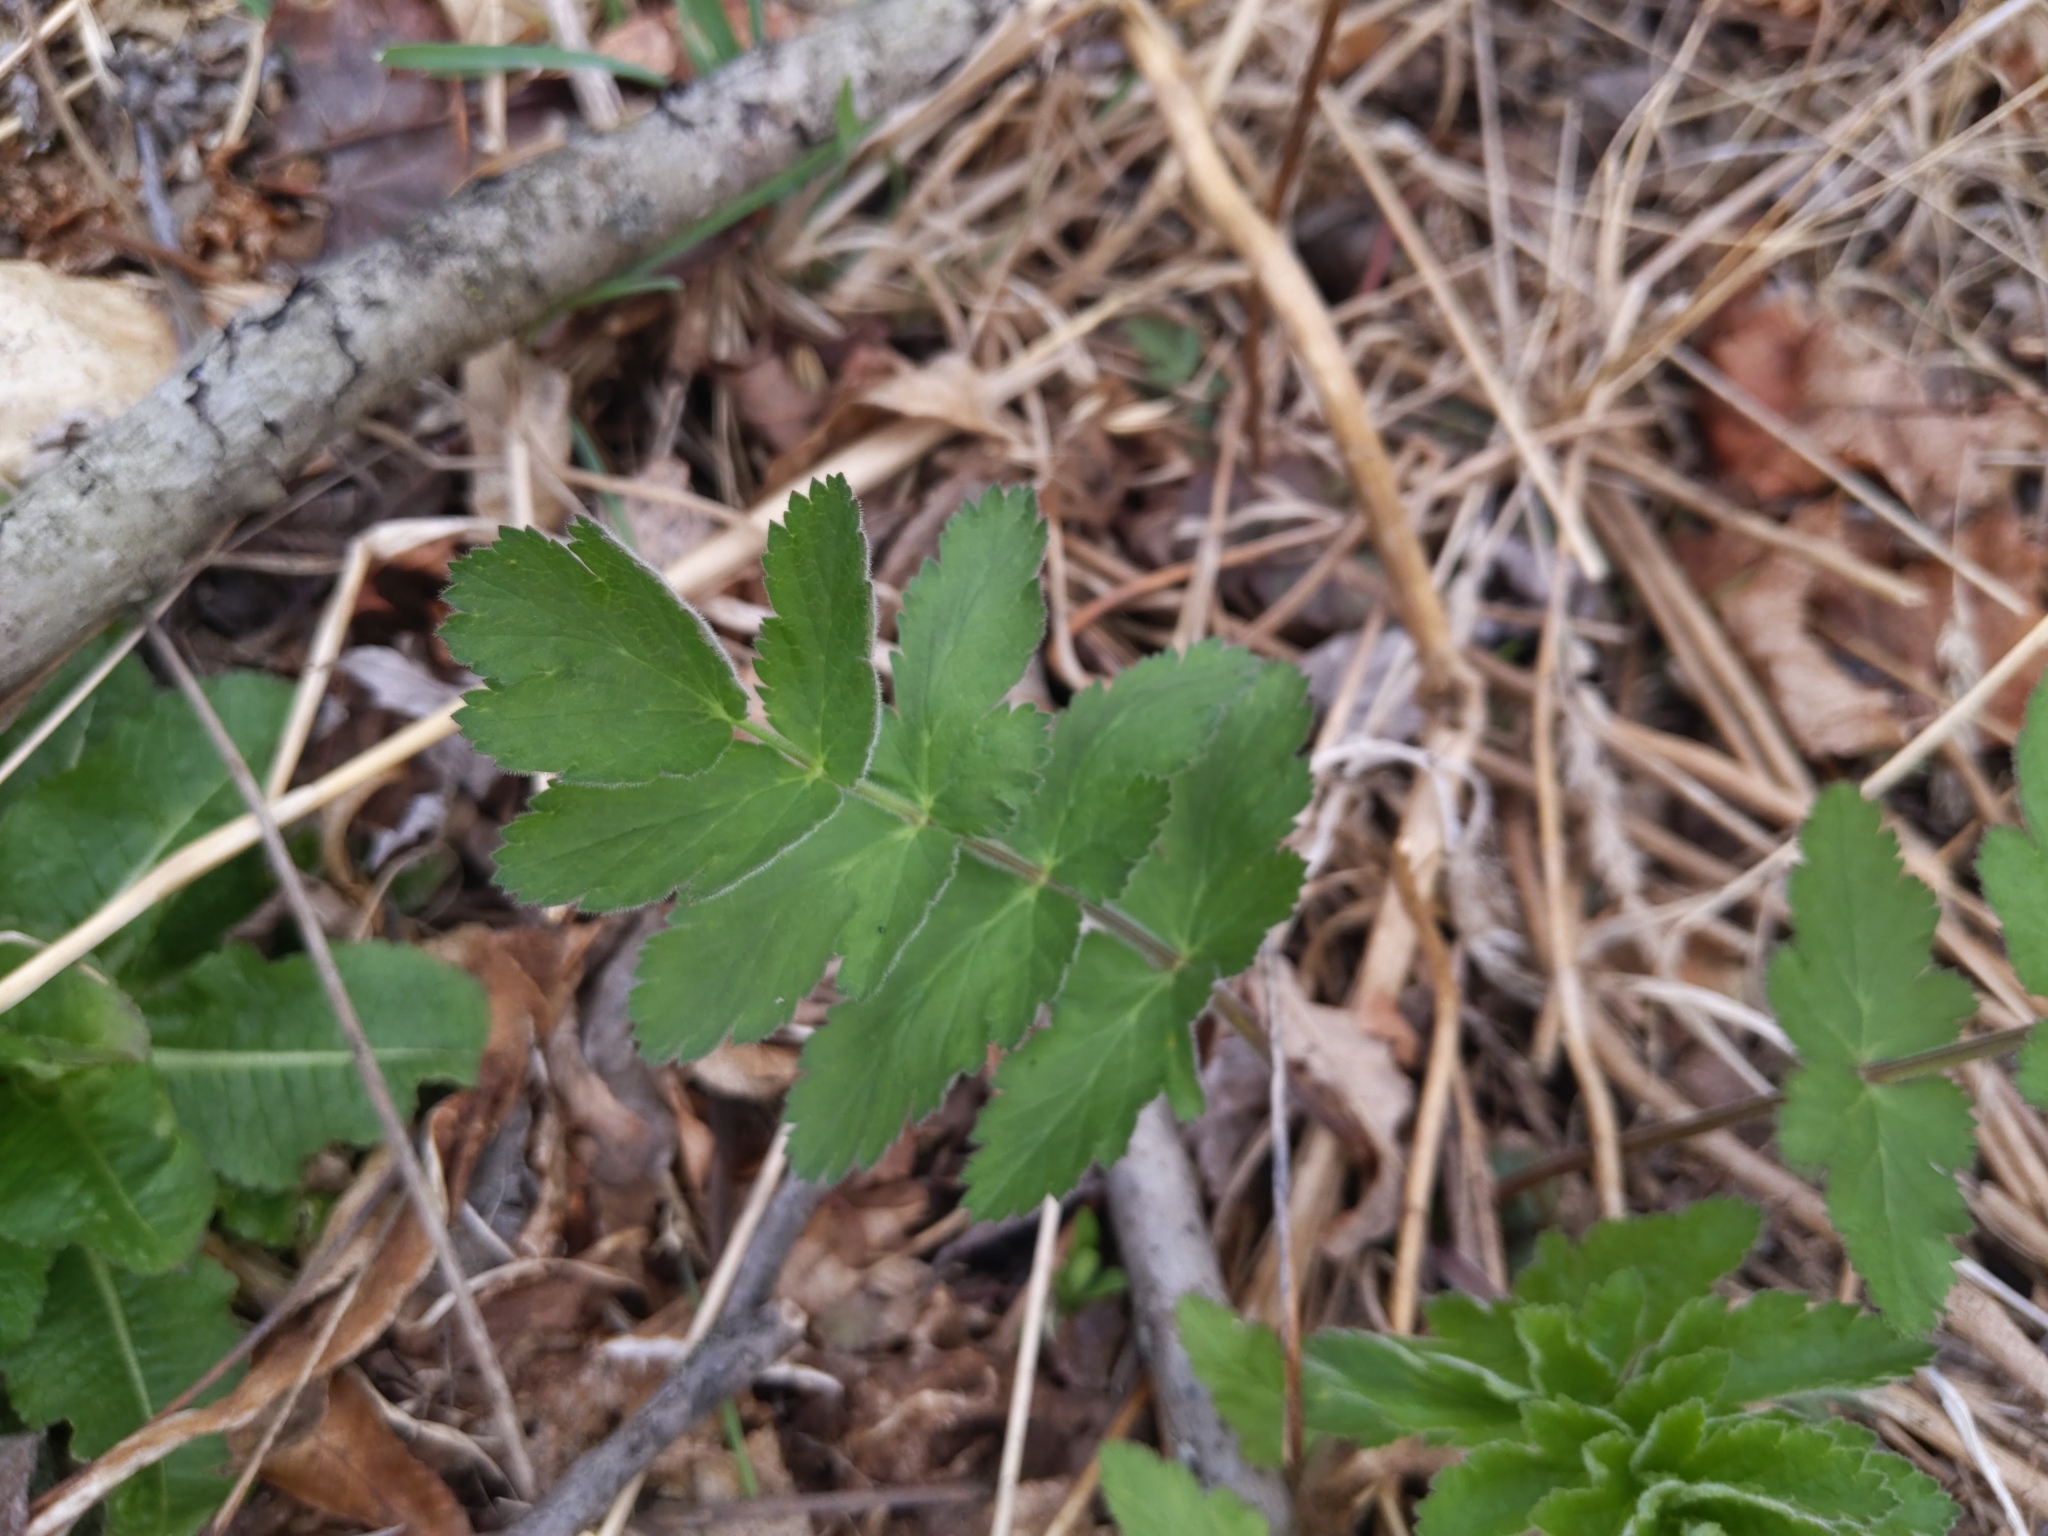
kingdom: Plantae
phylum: Tracheophyta
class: Magnoliopsida
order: Apiales
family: Apiaceae
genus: Pastinaca
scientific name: Pastinaca sativa
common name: Wild parsnip
